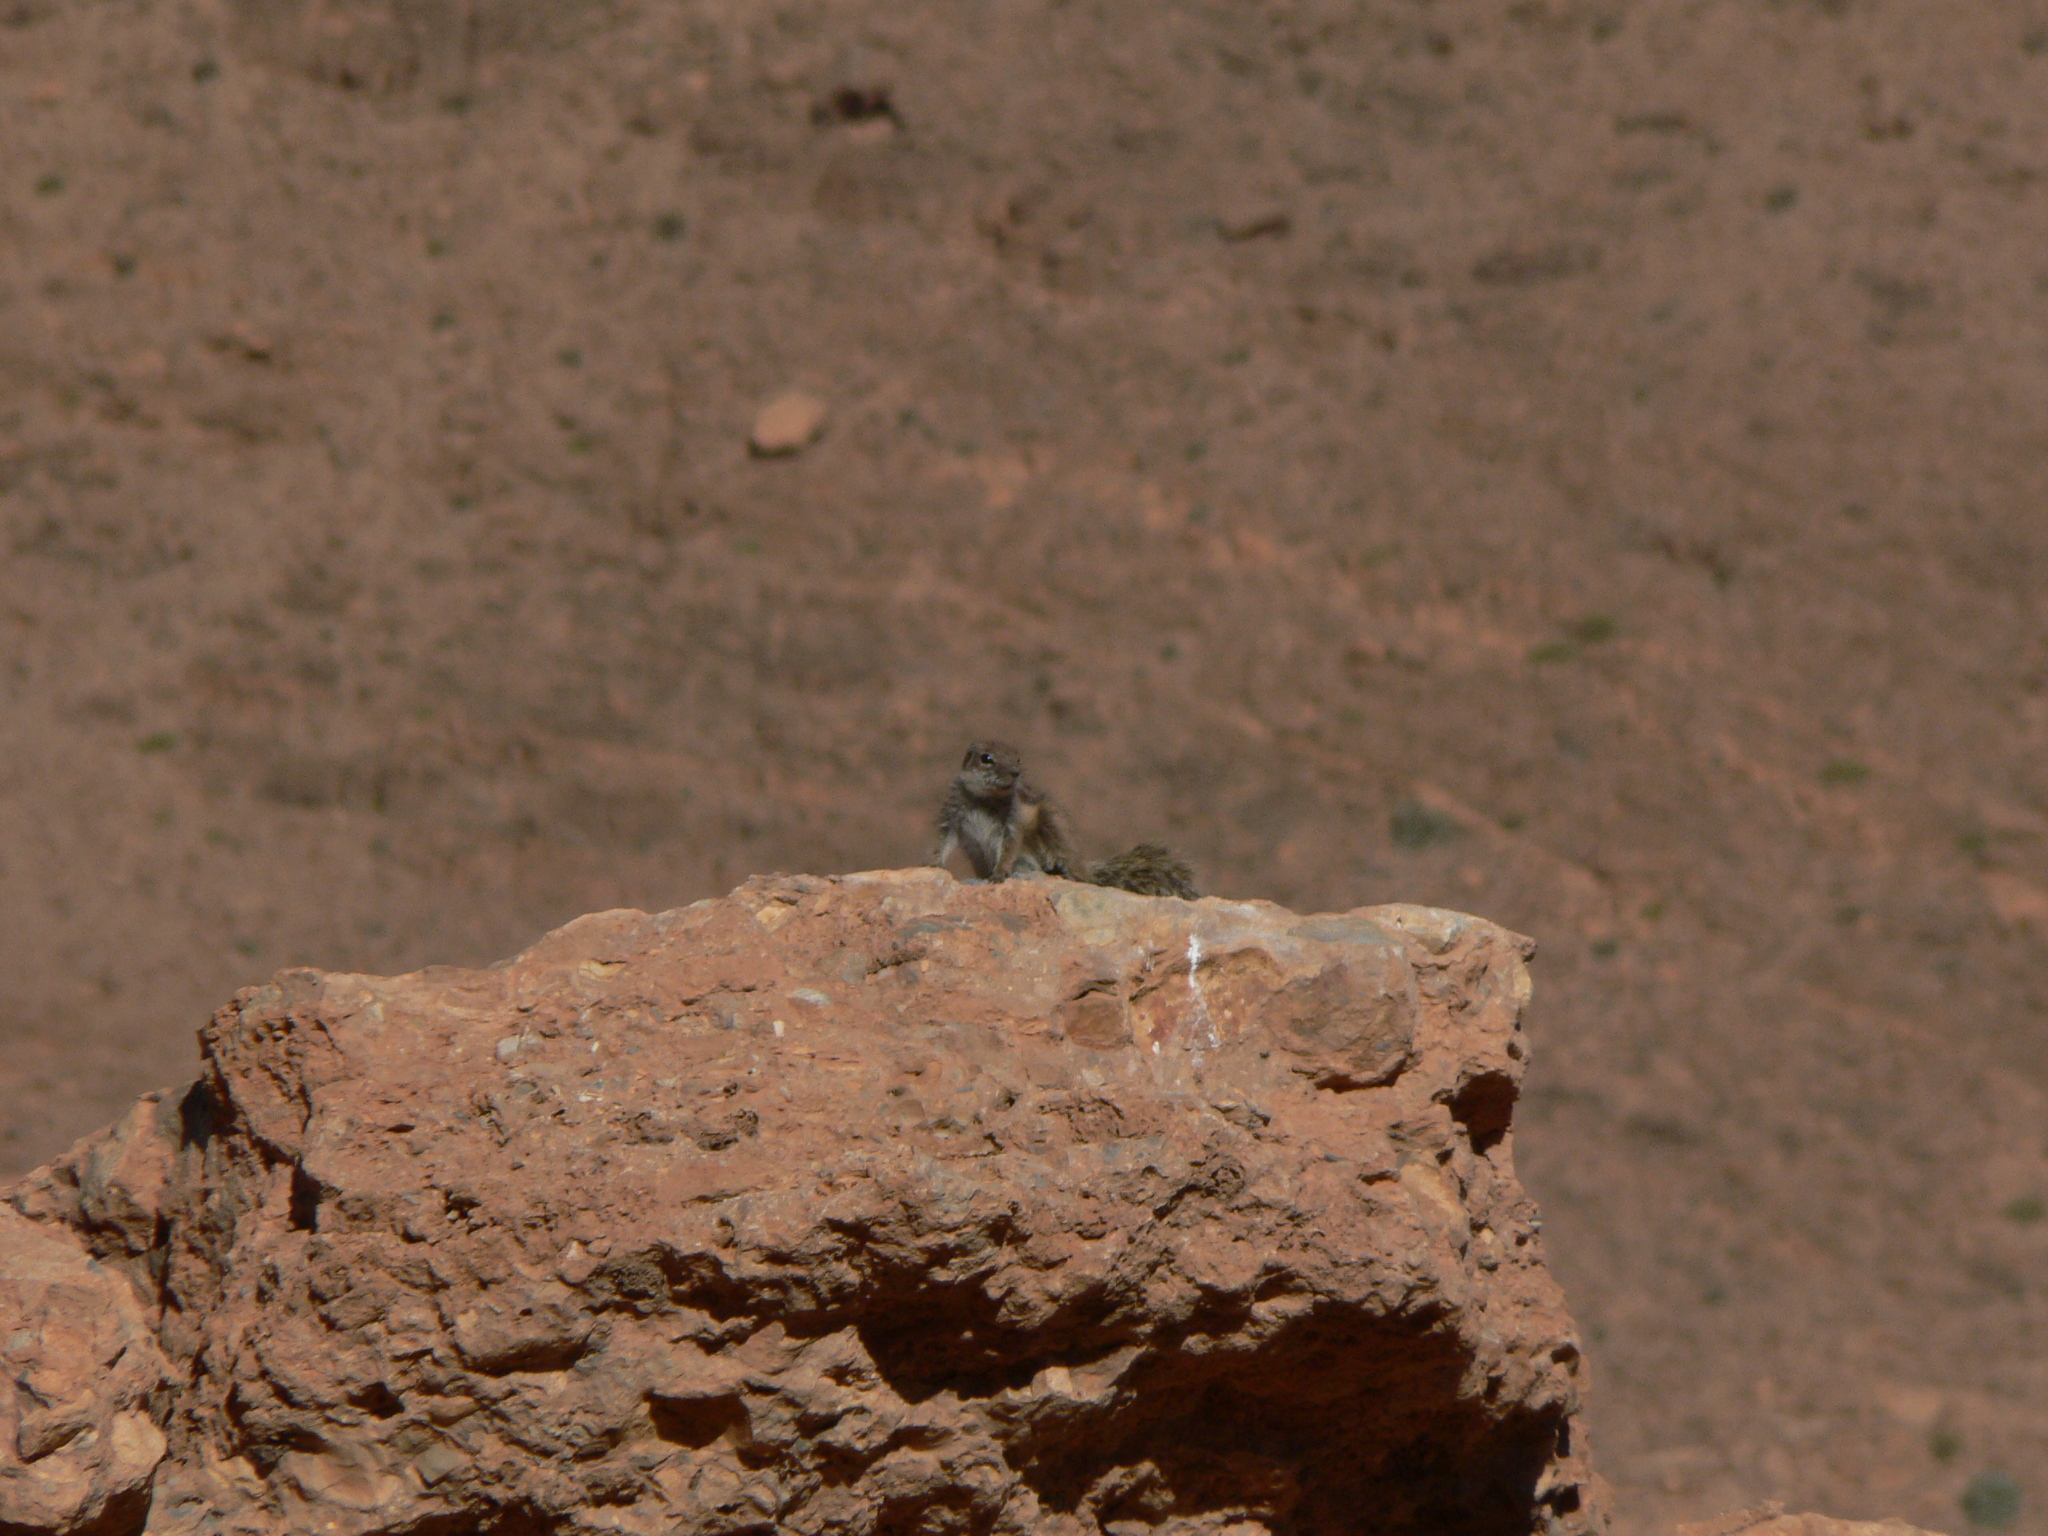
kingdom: Animalia
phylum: Chordata
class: Mammalia
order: Rodentia
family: Sciuridae
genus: Atlantoxerus
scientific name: Atlantoxerus getulus
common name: Barbary ground squirrel
